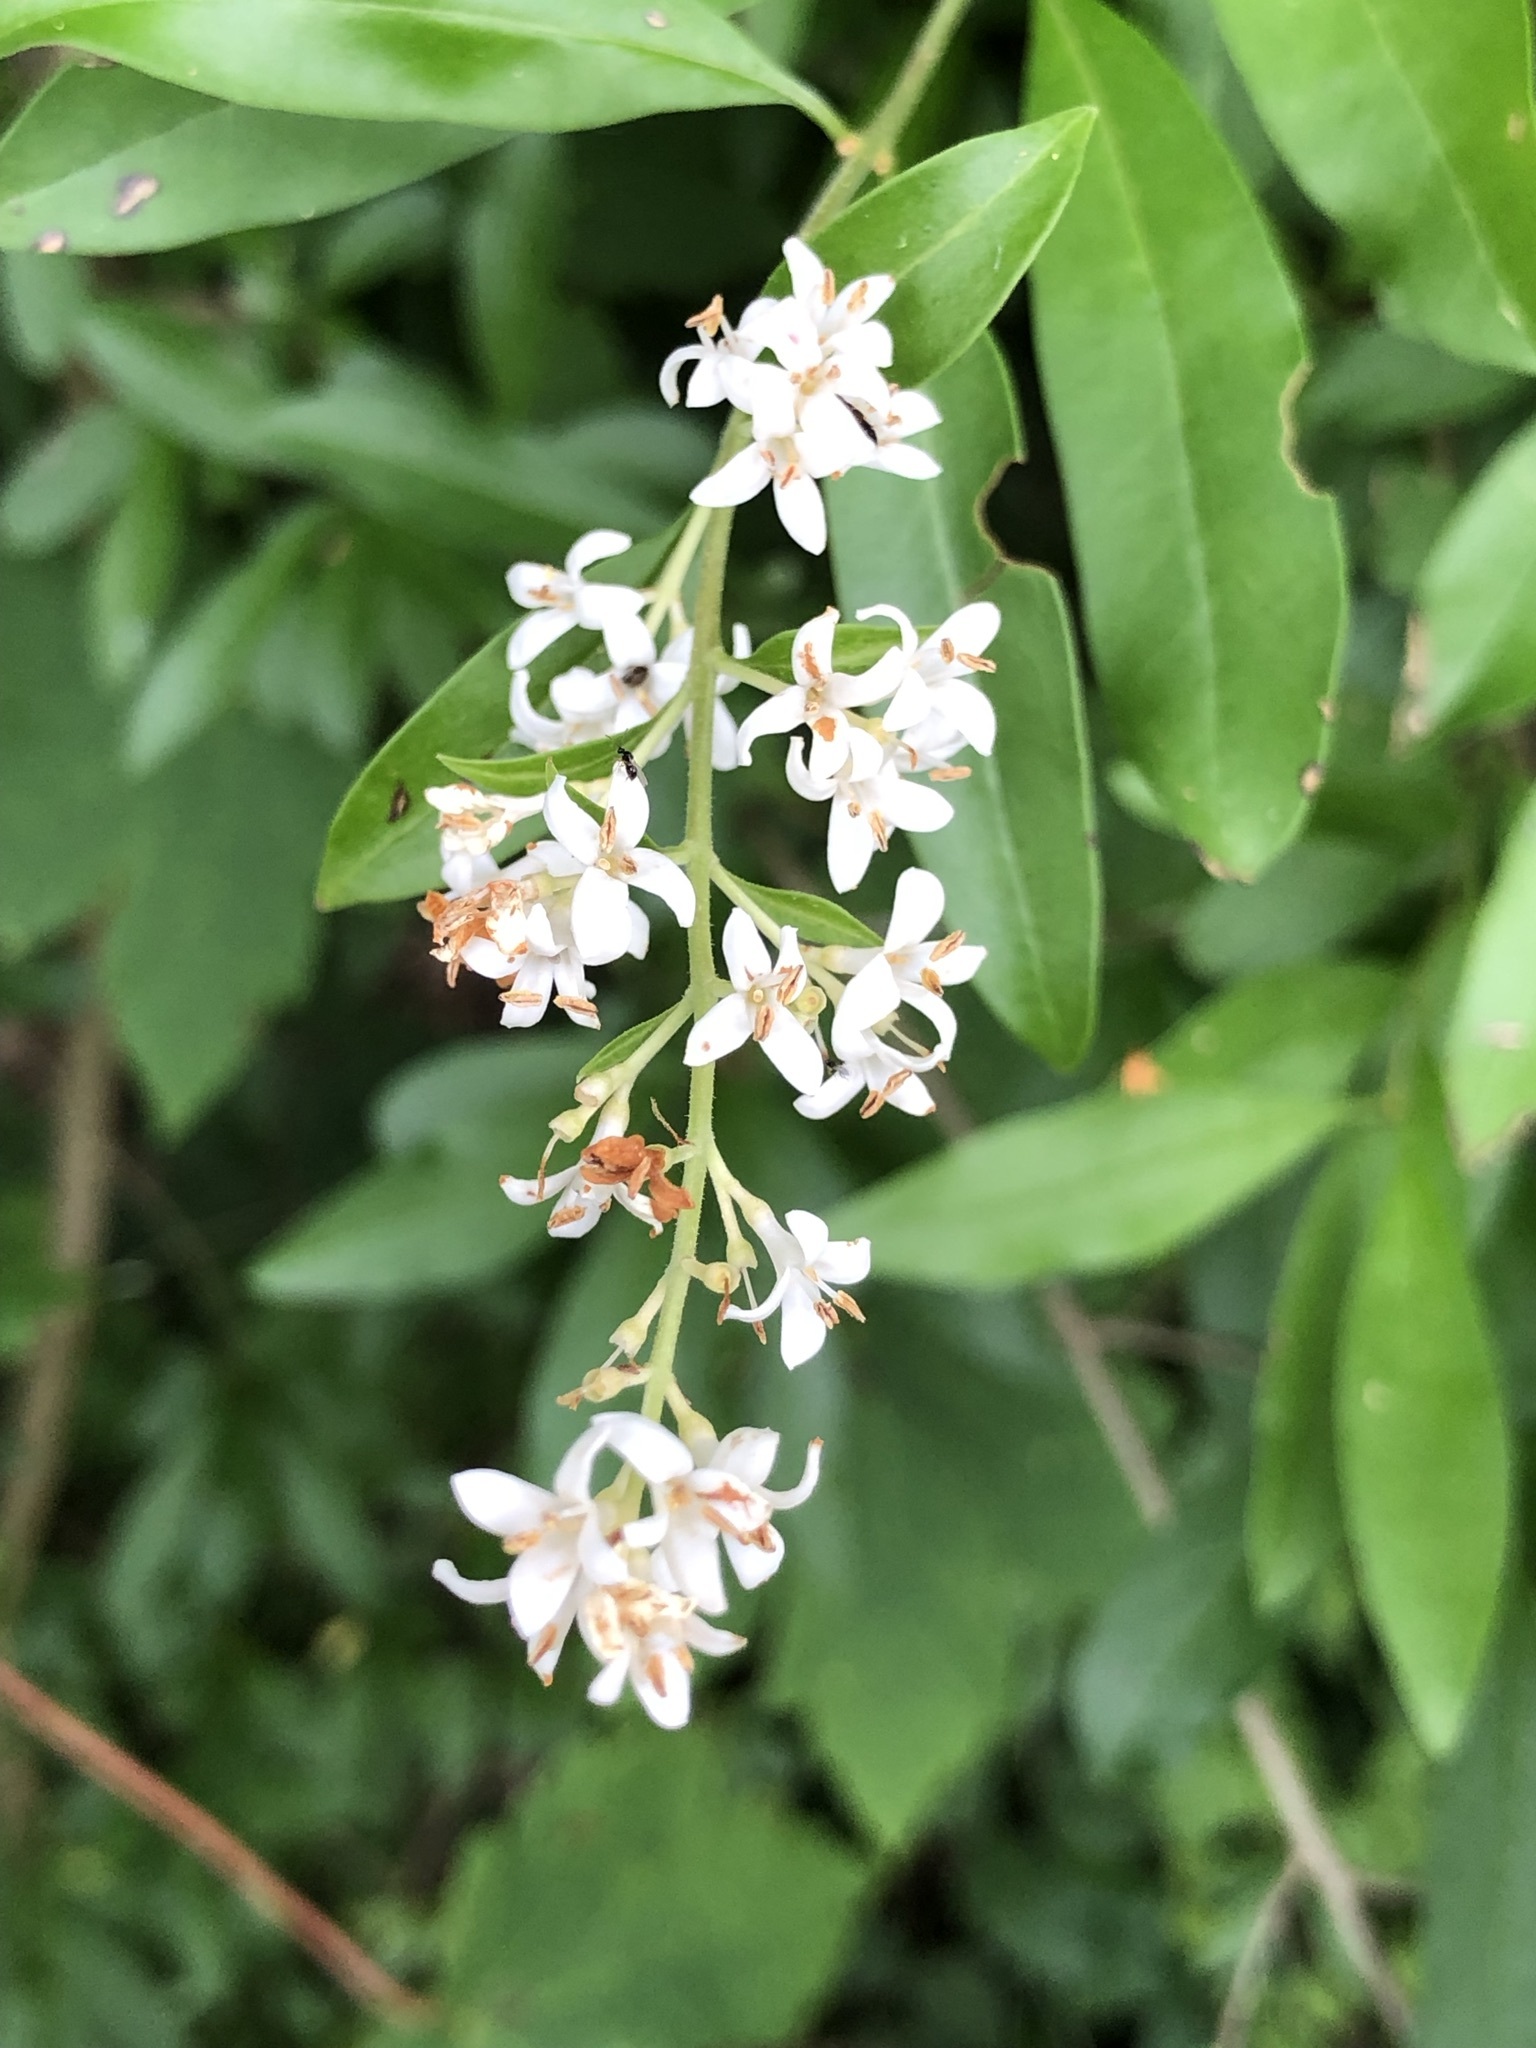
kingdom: Plantae
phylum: Tracheophyta
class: Magnoliopsida
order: Lamiales
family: Oleaceae
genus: Ligustrum
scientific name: Ligustrum vulgare
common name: Wild privet
